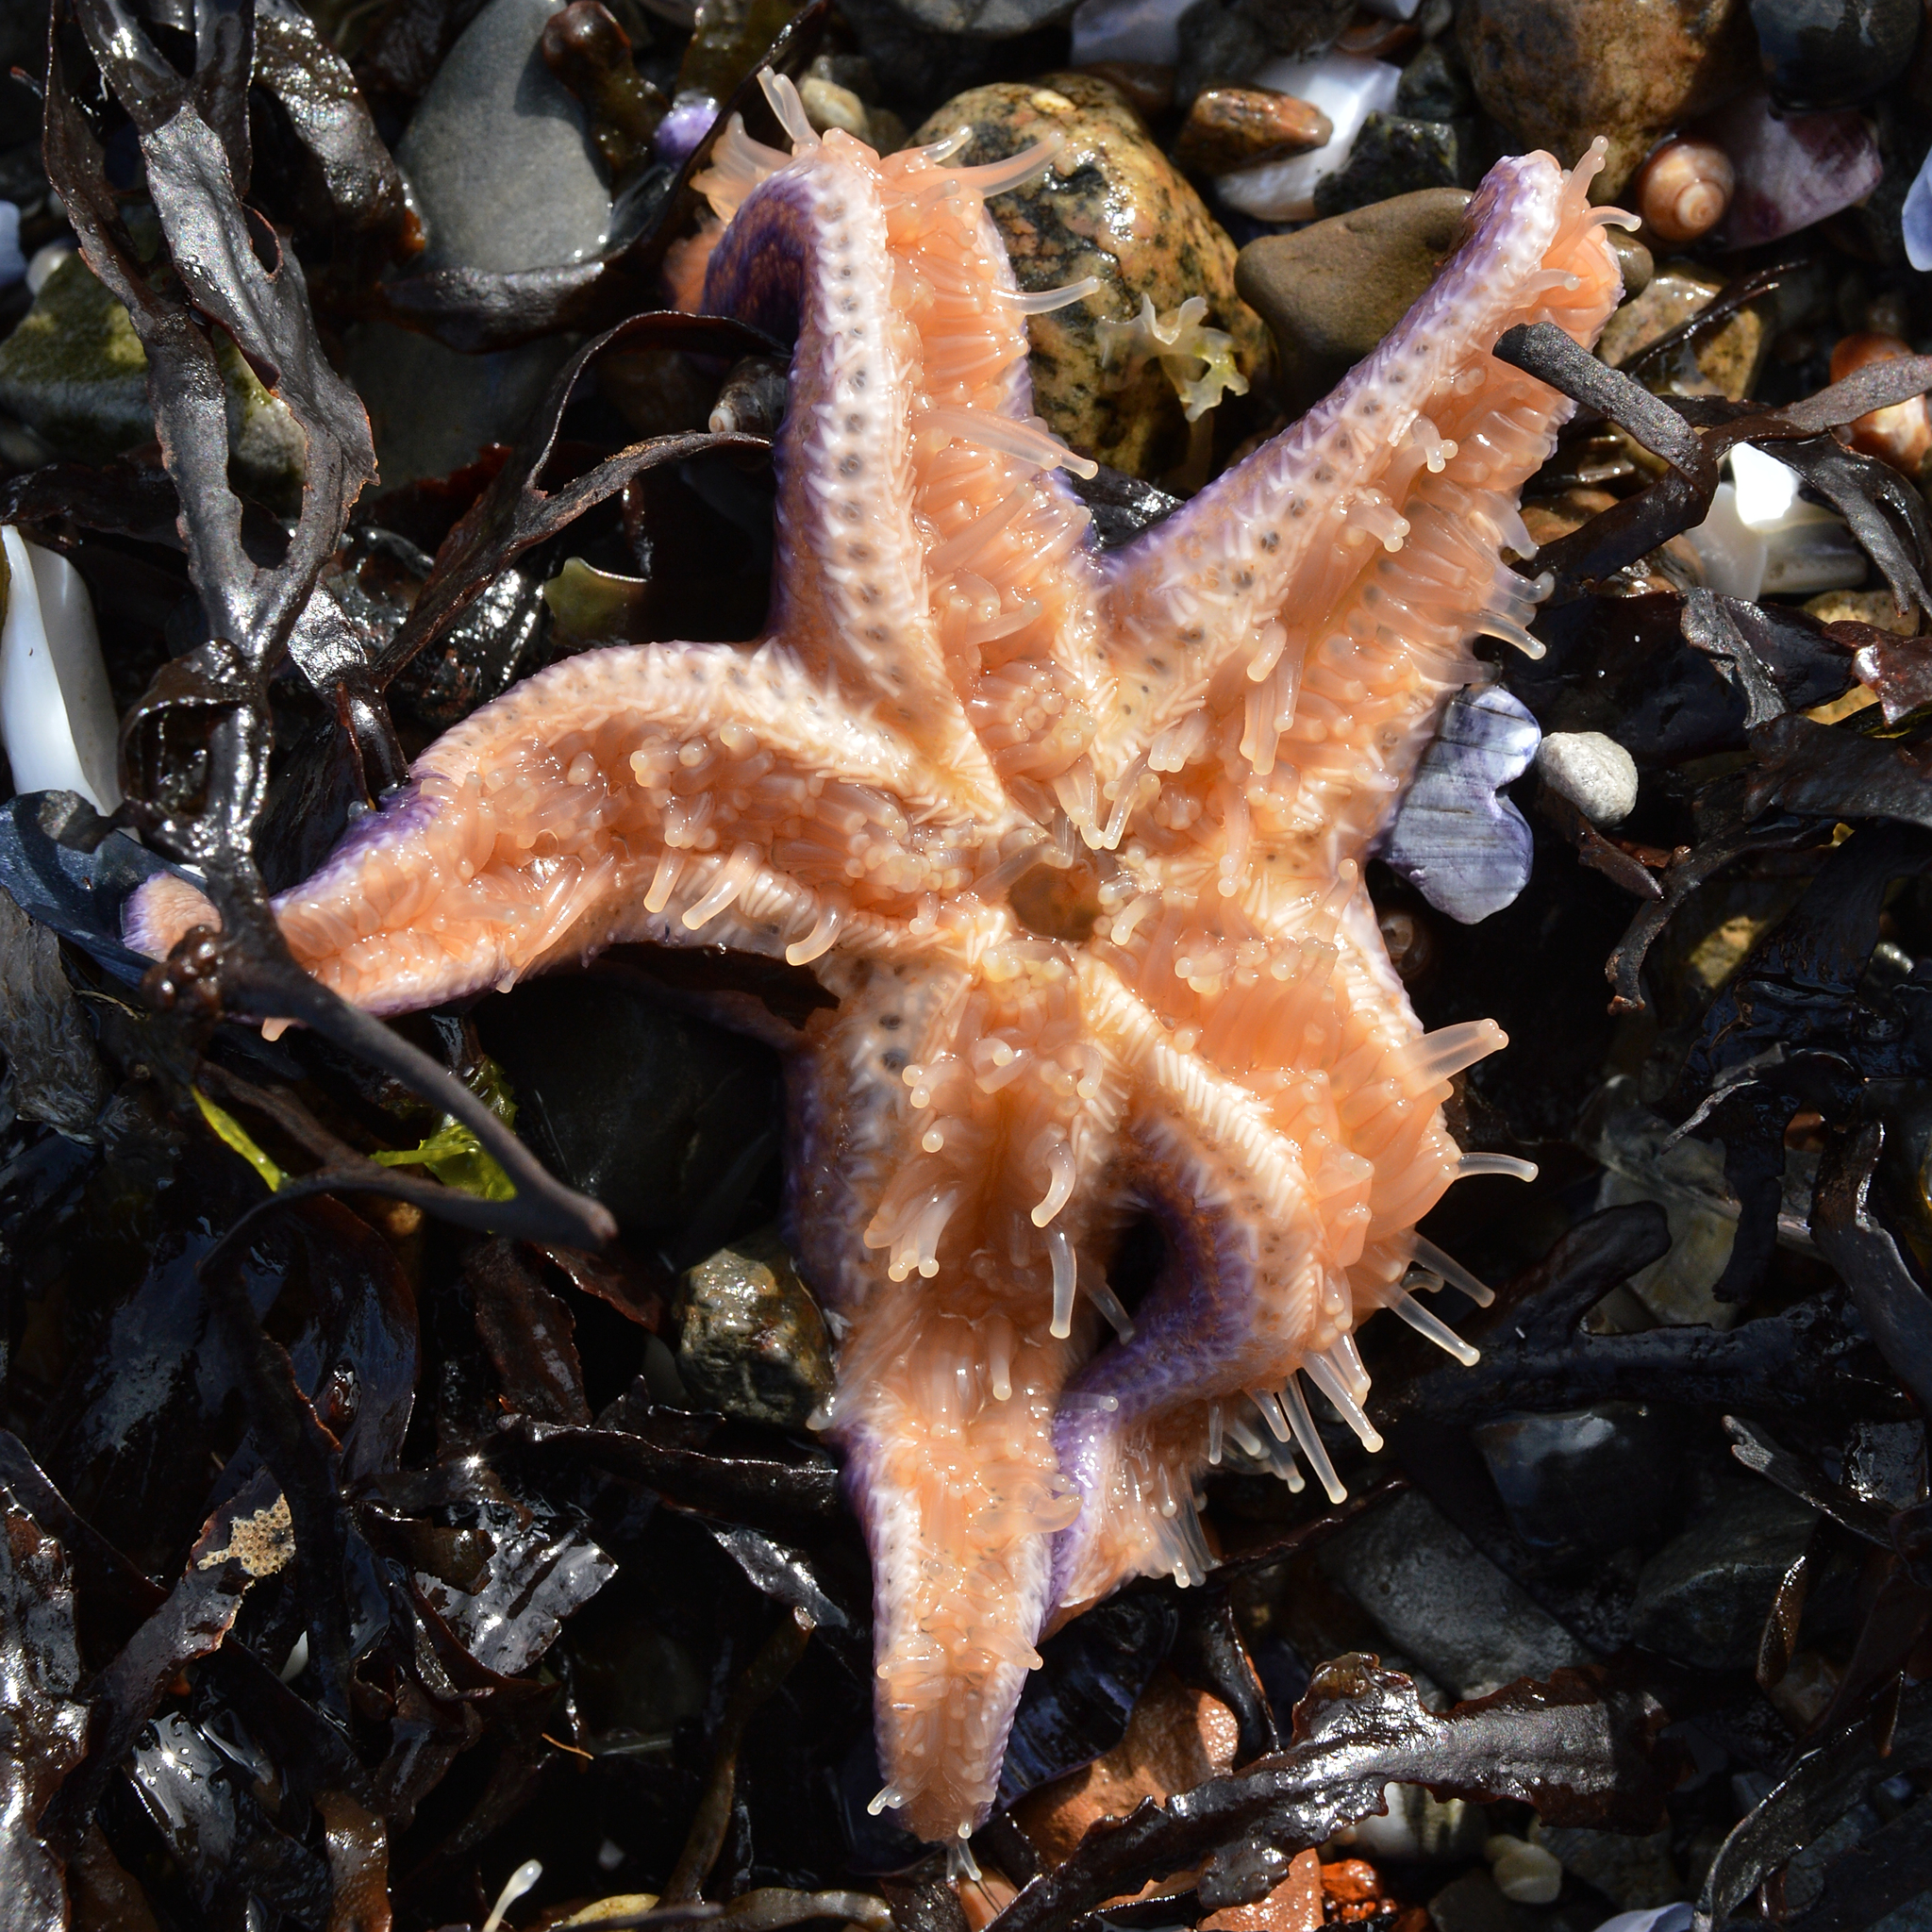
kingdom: Animalia
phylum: Echinodermata
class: Asteroidea
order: Forcipulatida
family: Asteriidae
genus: Asterias
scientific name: Asterias rubens
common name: Common starfish
